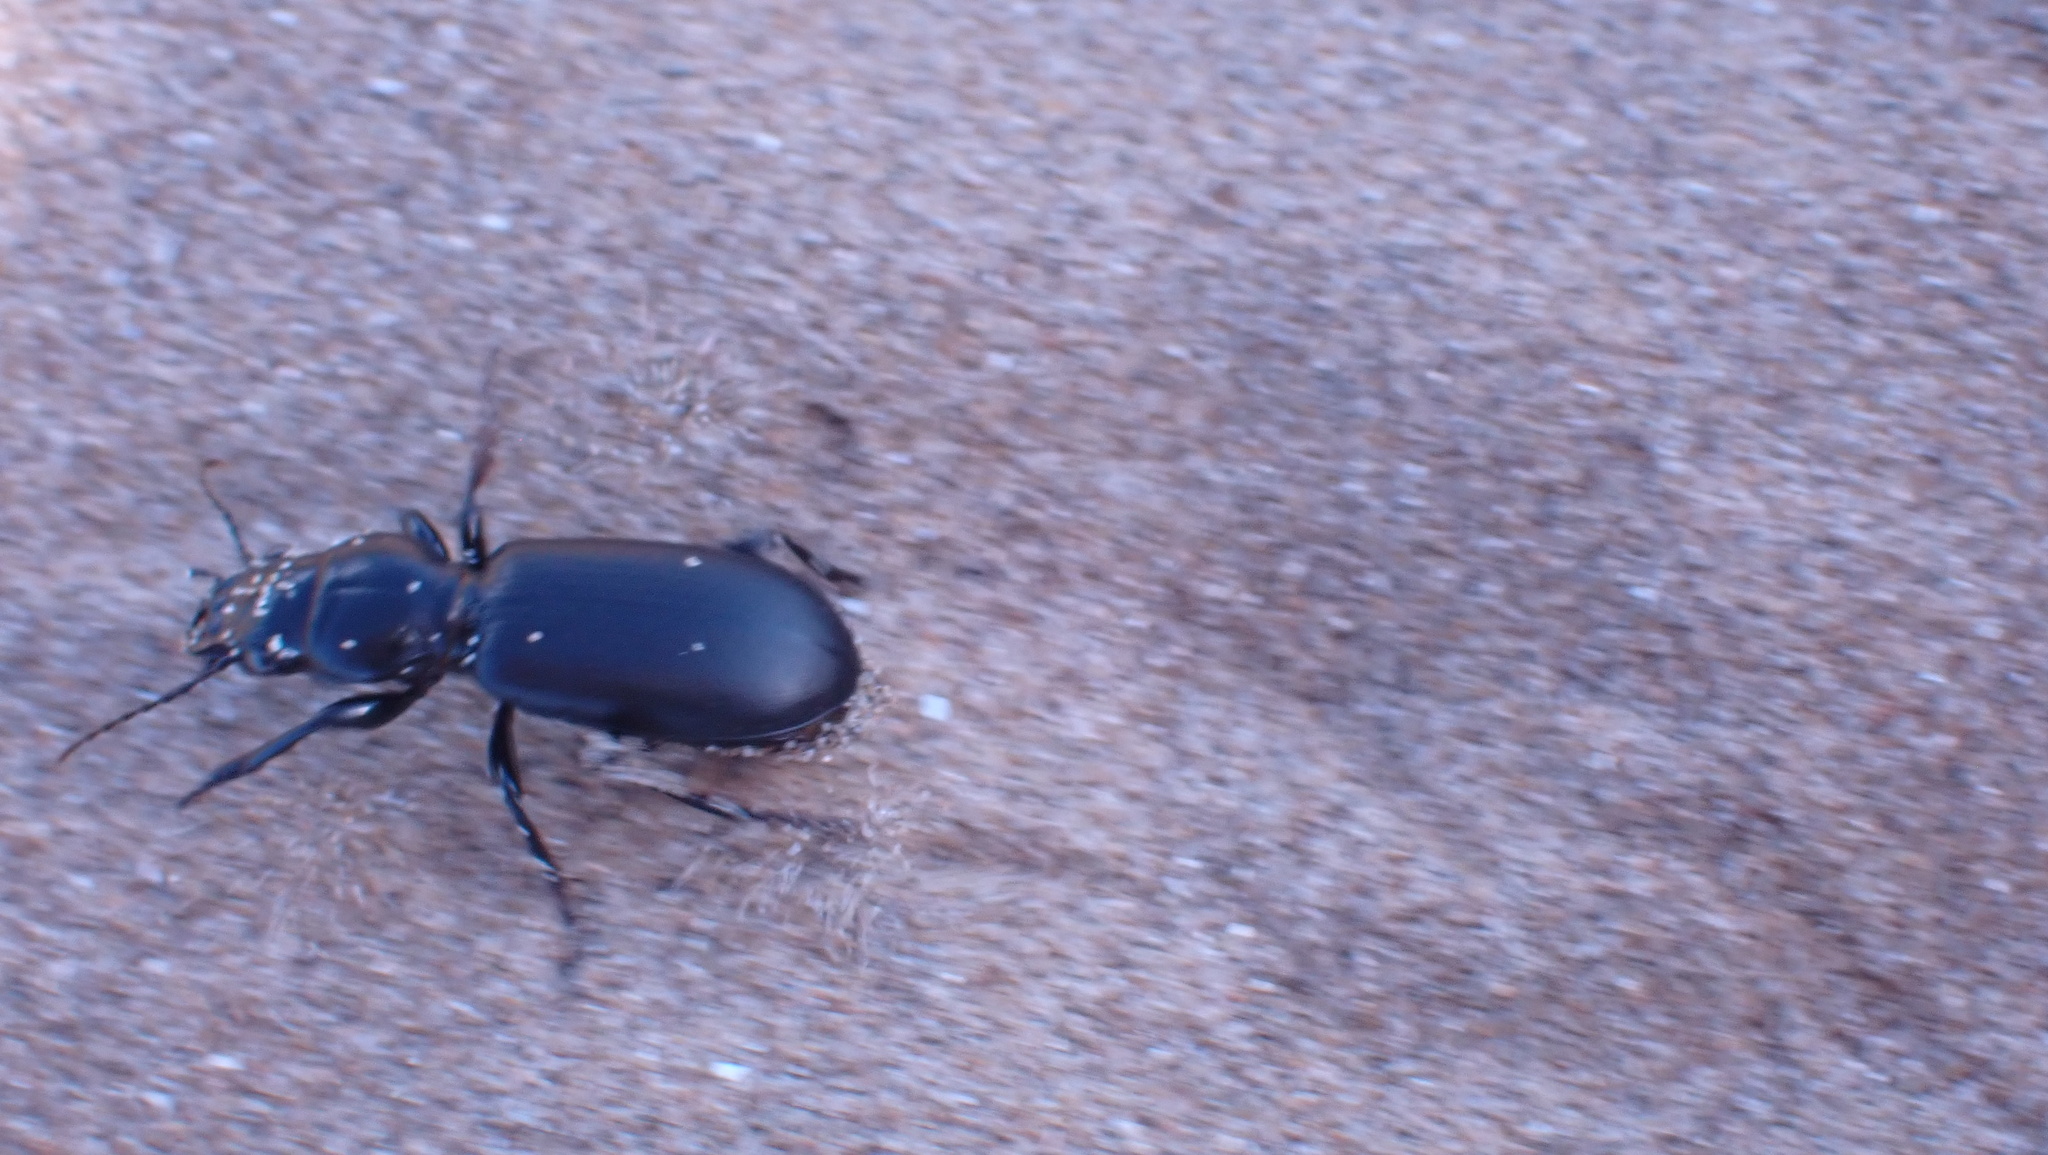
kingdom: Animalia
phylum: Arthropoda
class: Insecta
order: Coleoptera
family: Carabidae
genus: Broscus
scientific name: Broscus cephalotes
